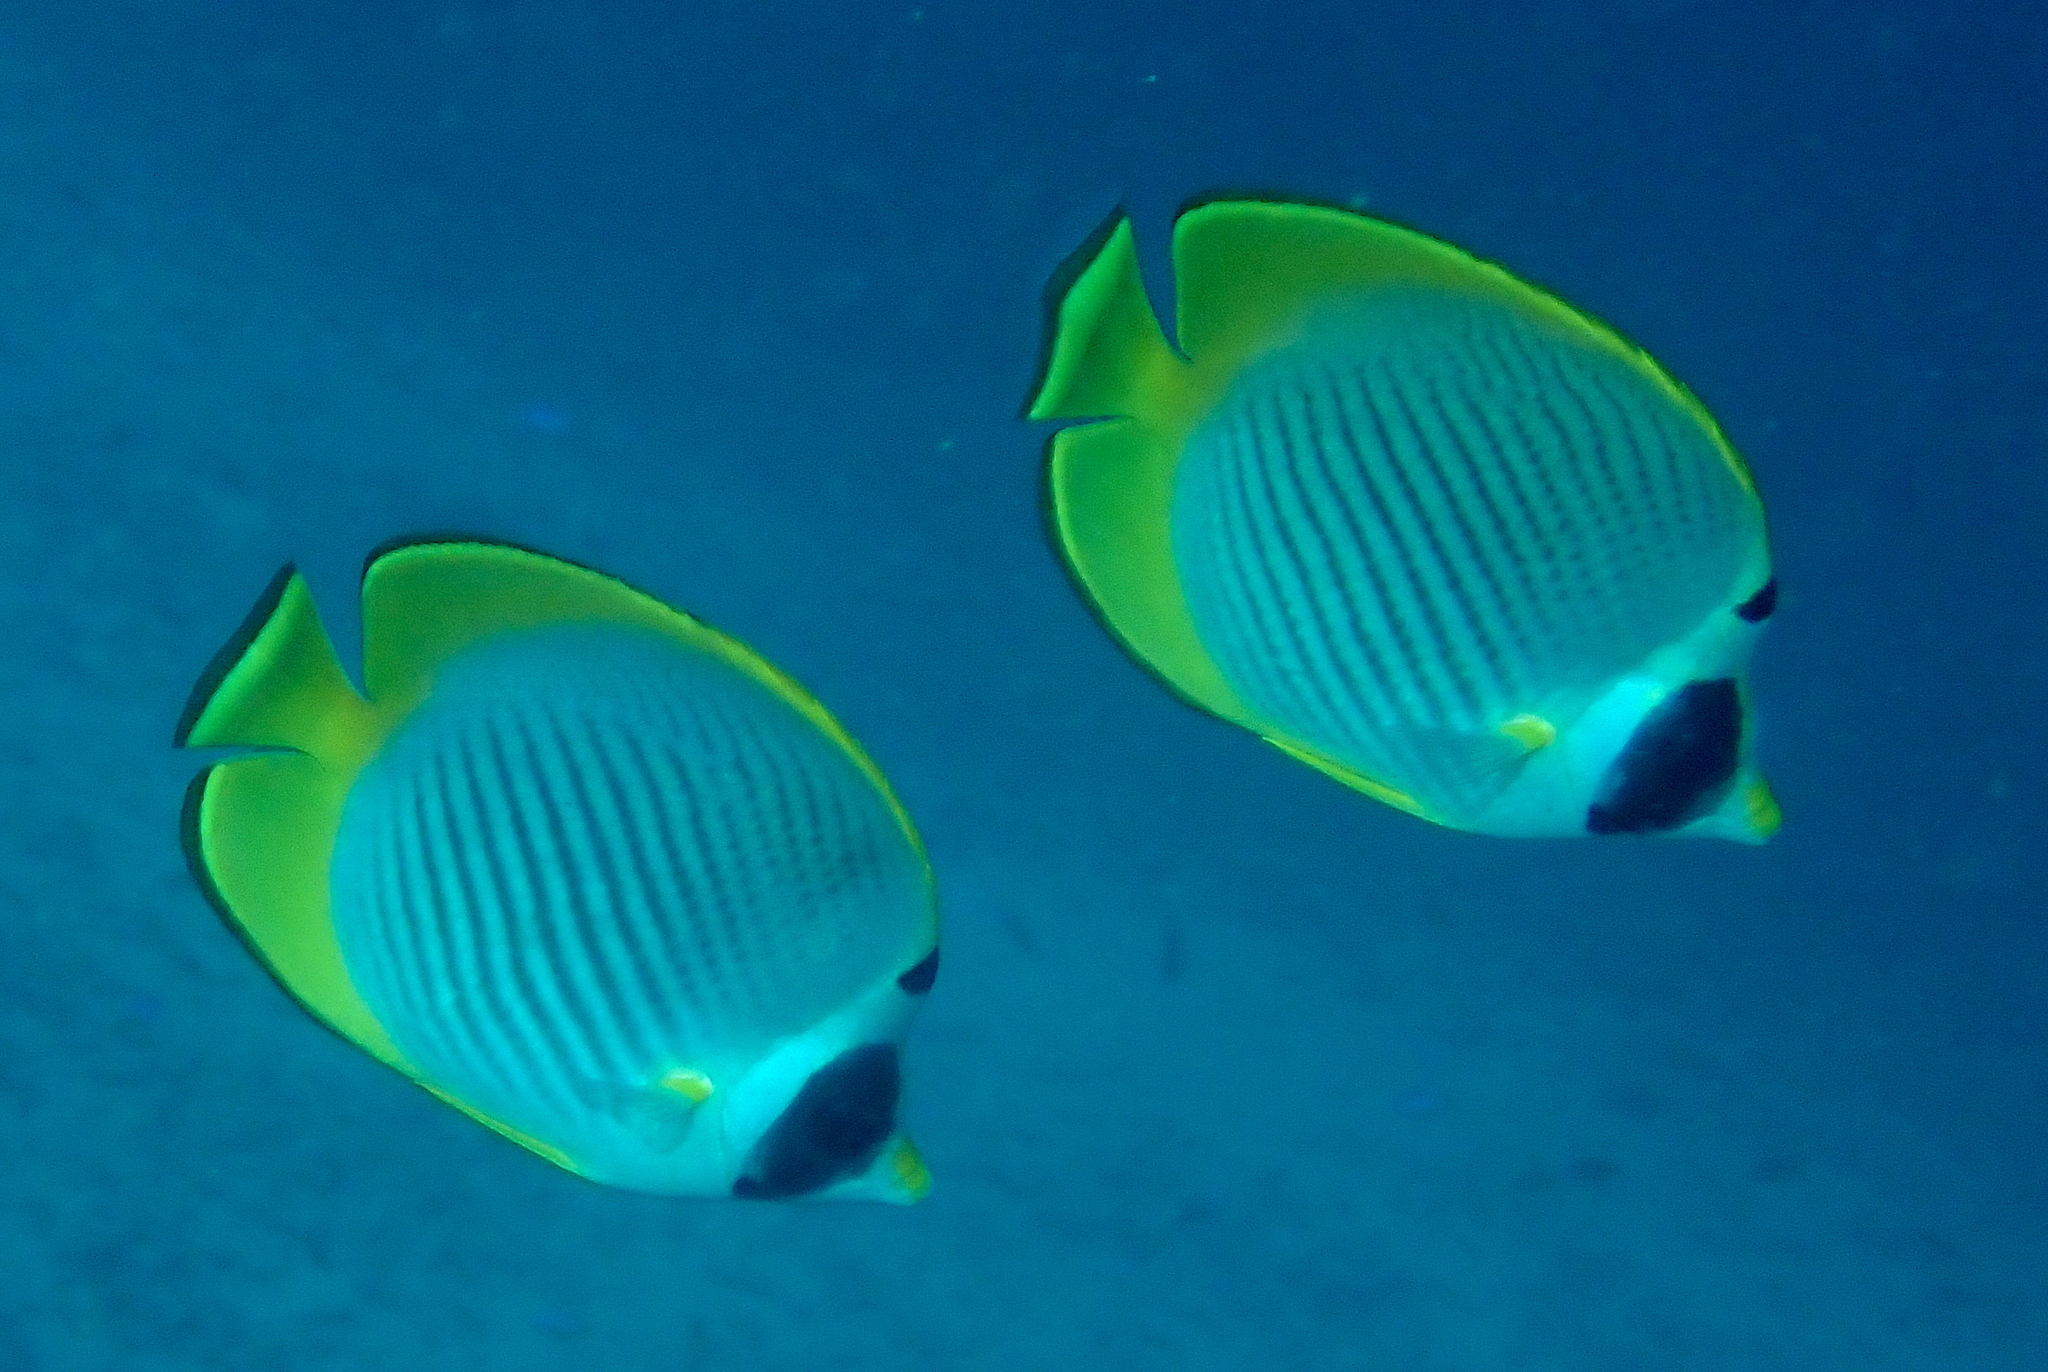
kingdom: Animalia
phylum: Chordata
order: Perciformes
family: Chaetodontidae
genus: Chaetodon
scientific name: Chaetodon adiergastos
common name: Eye-patch butterflyfish
